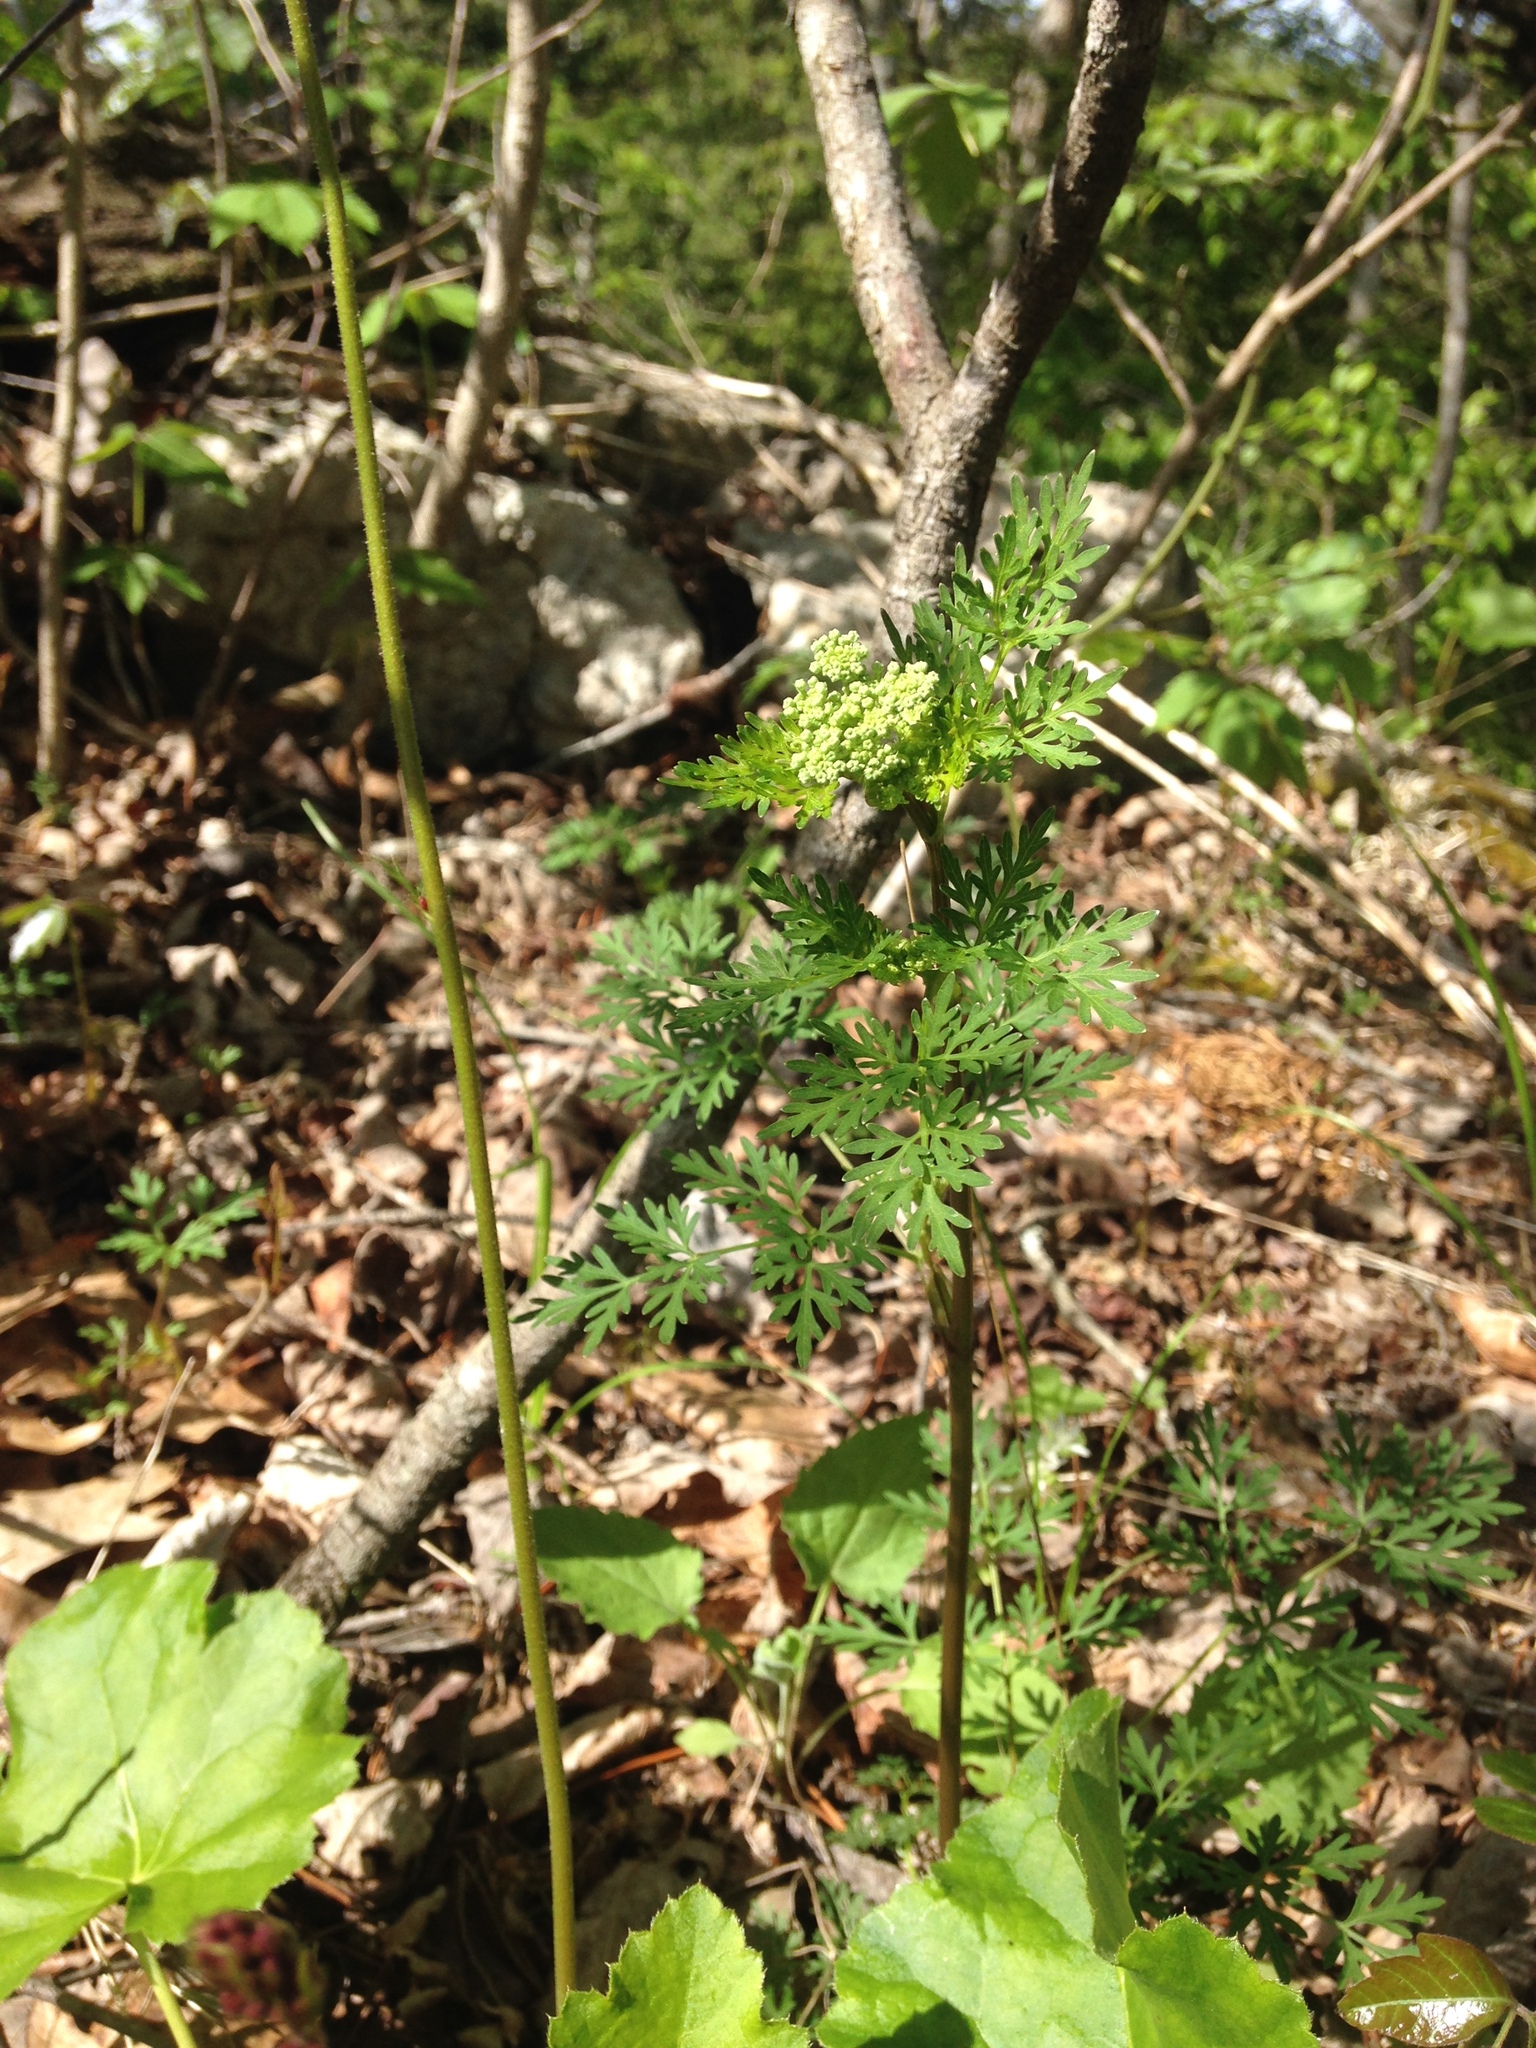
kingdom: Plantae
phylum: Tracheophyta
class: Magnoliopsida
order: Apiales
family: Apiaceae
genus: Thaspium
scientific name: Thaspium pinnatifidum
